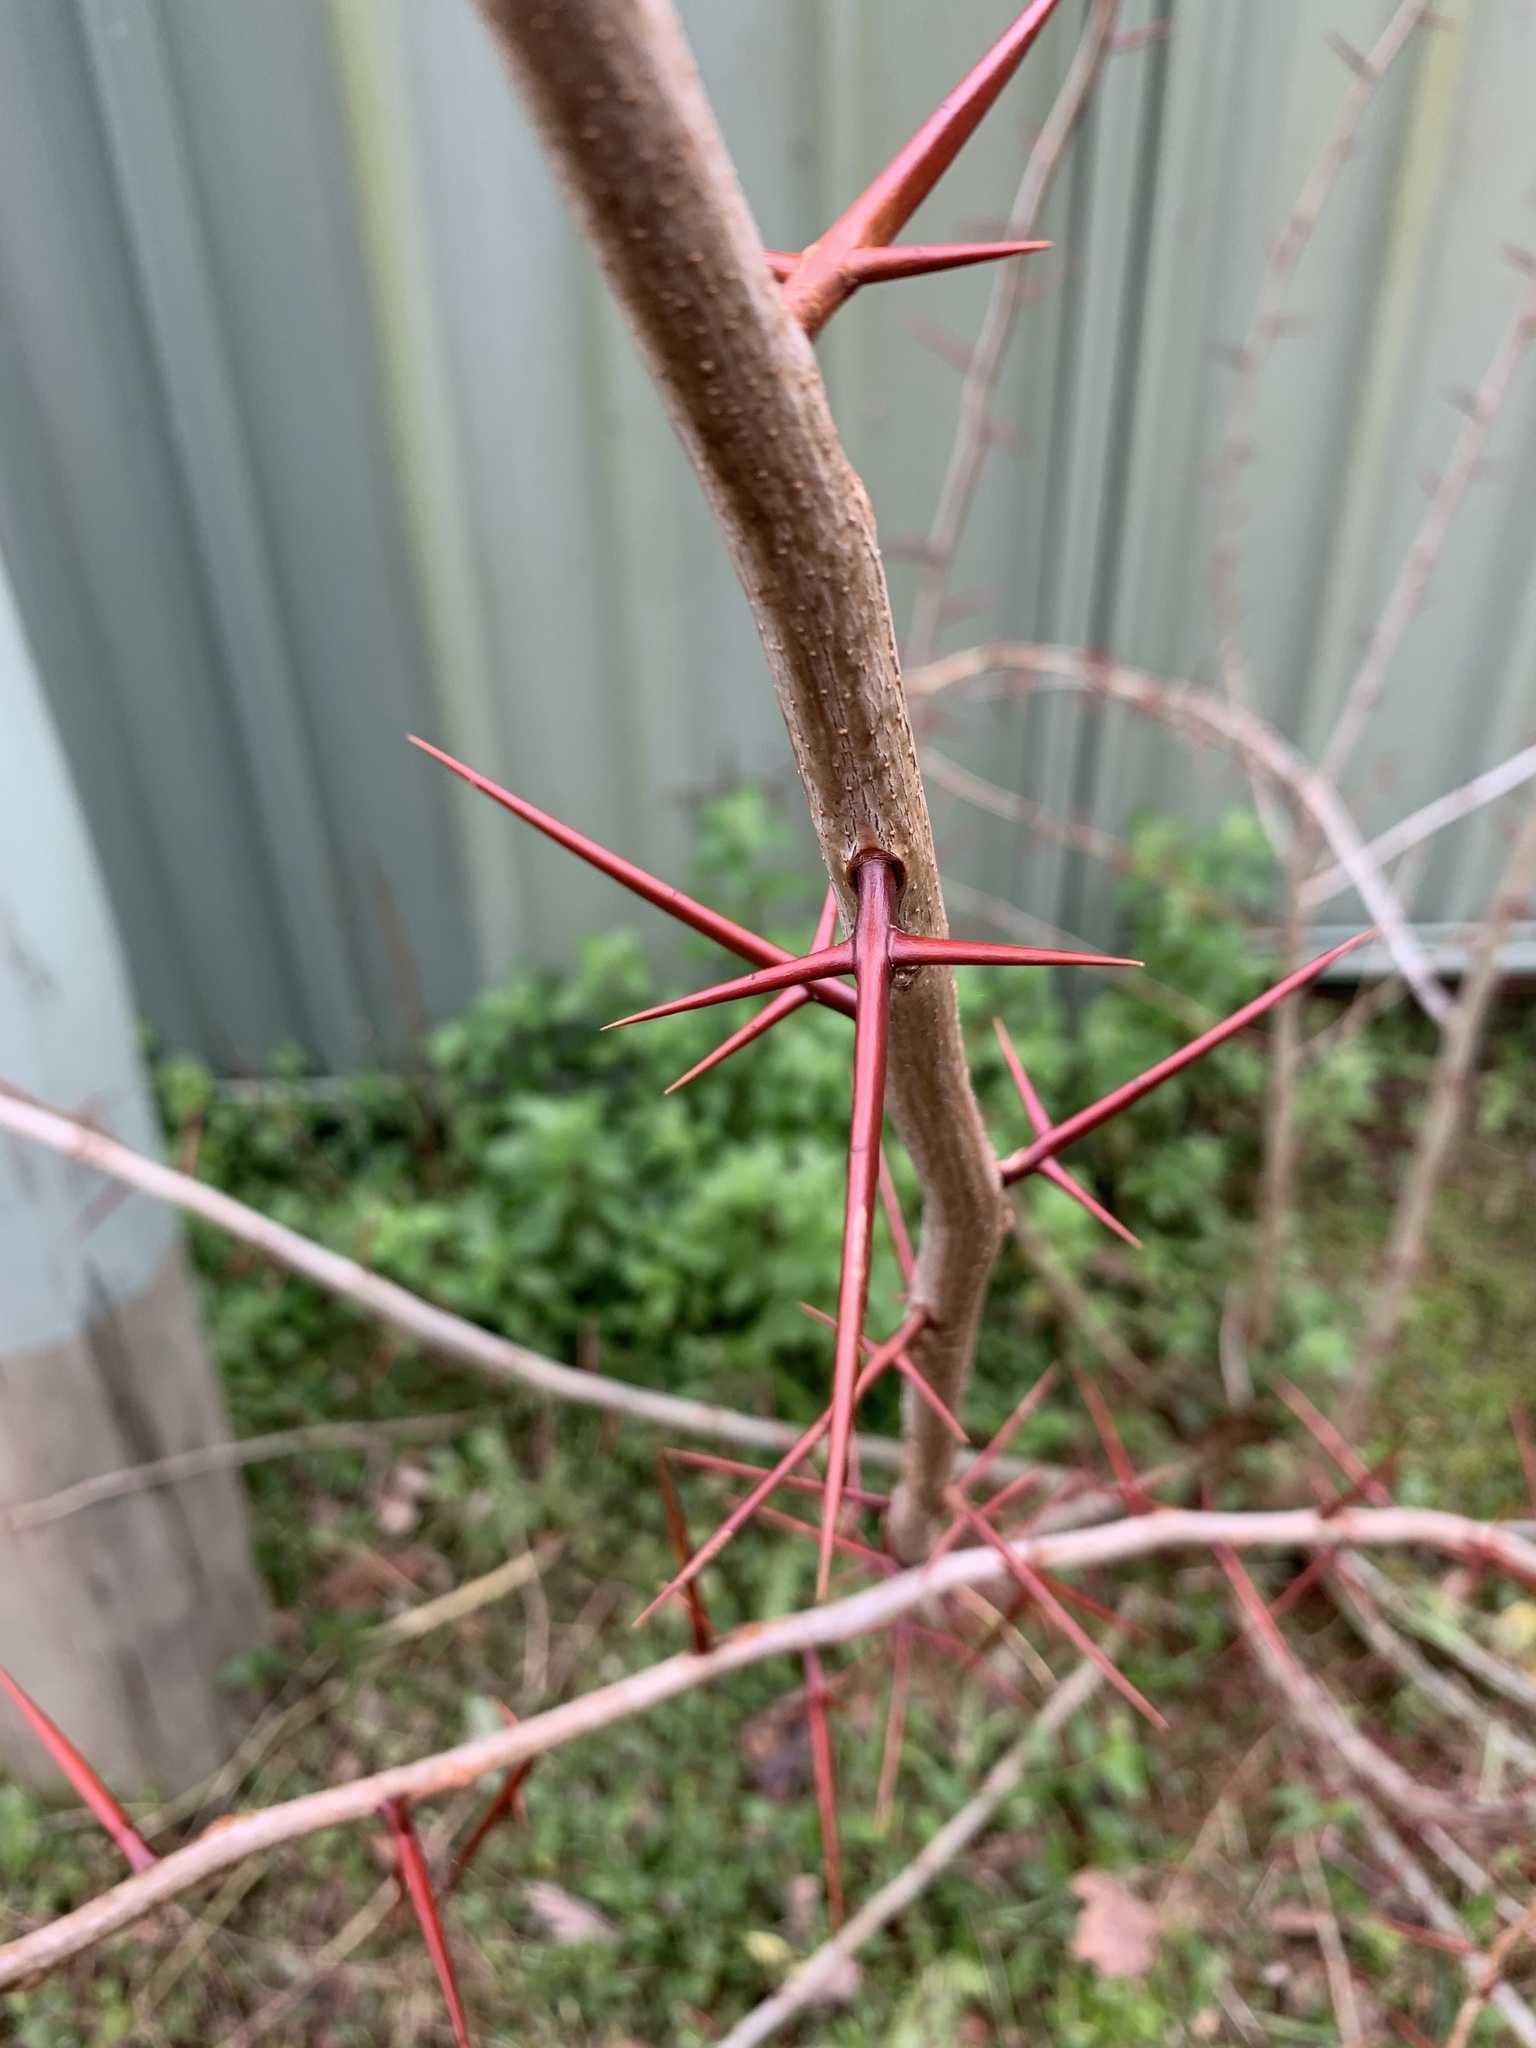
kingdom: Plantae
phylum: Tracheophyta
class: Magnoliopsida
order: Fabales
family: Fabaceae
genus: Gleditsia
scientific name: Gleditsia triacanthos
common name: Common honeylocust
